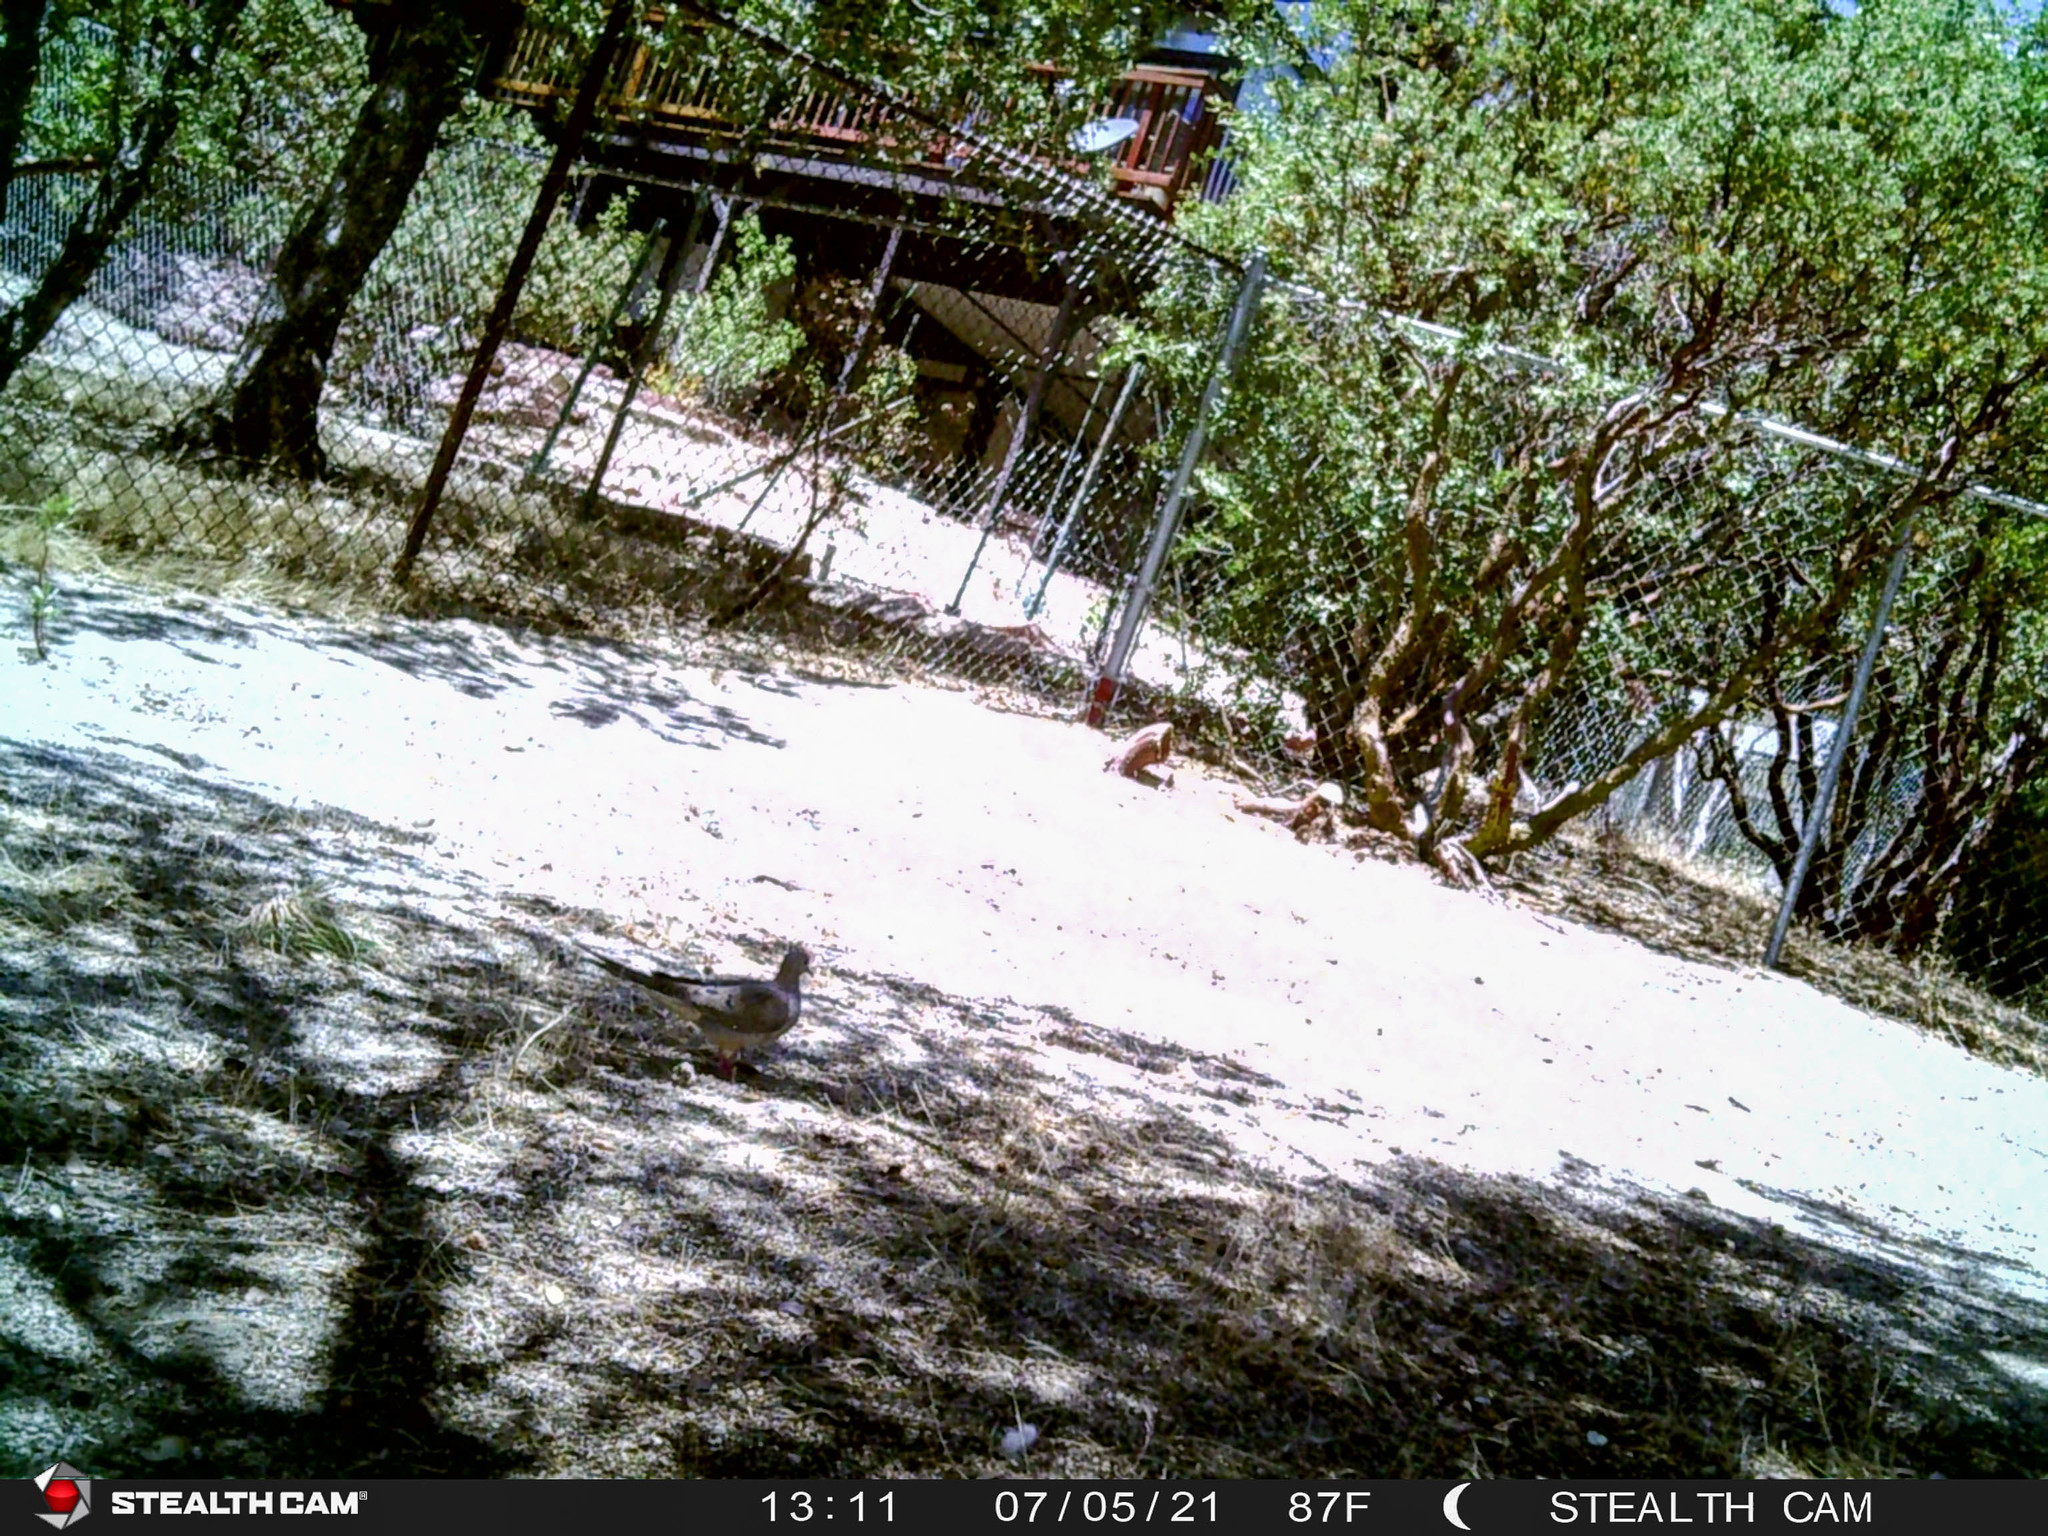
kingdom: Animalia
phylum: Chordata
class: Aves
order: Columbiformes
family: Columbidae
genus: Zenaida
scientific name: Zenaida macroura
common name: Mourning dove
